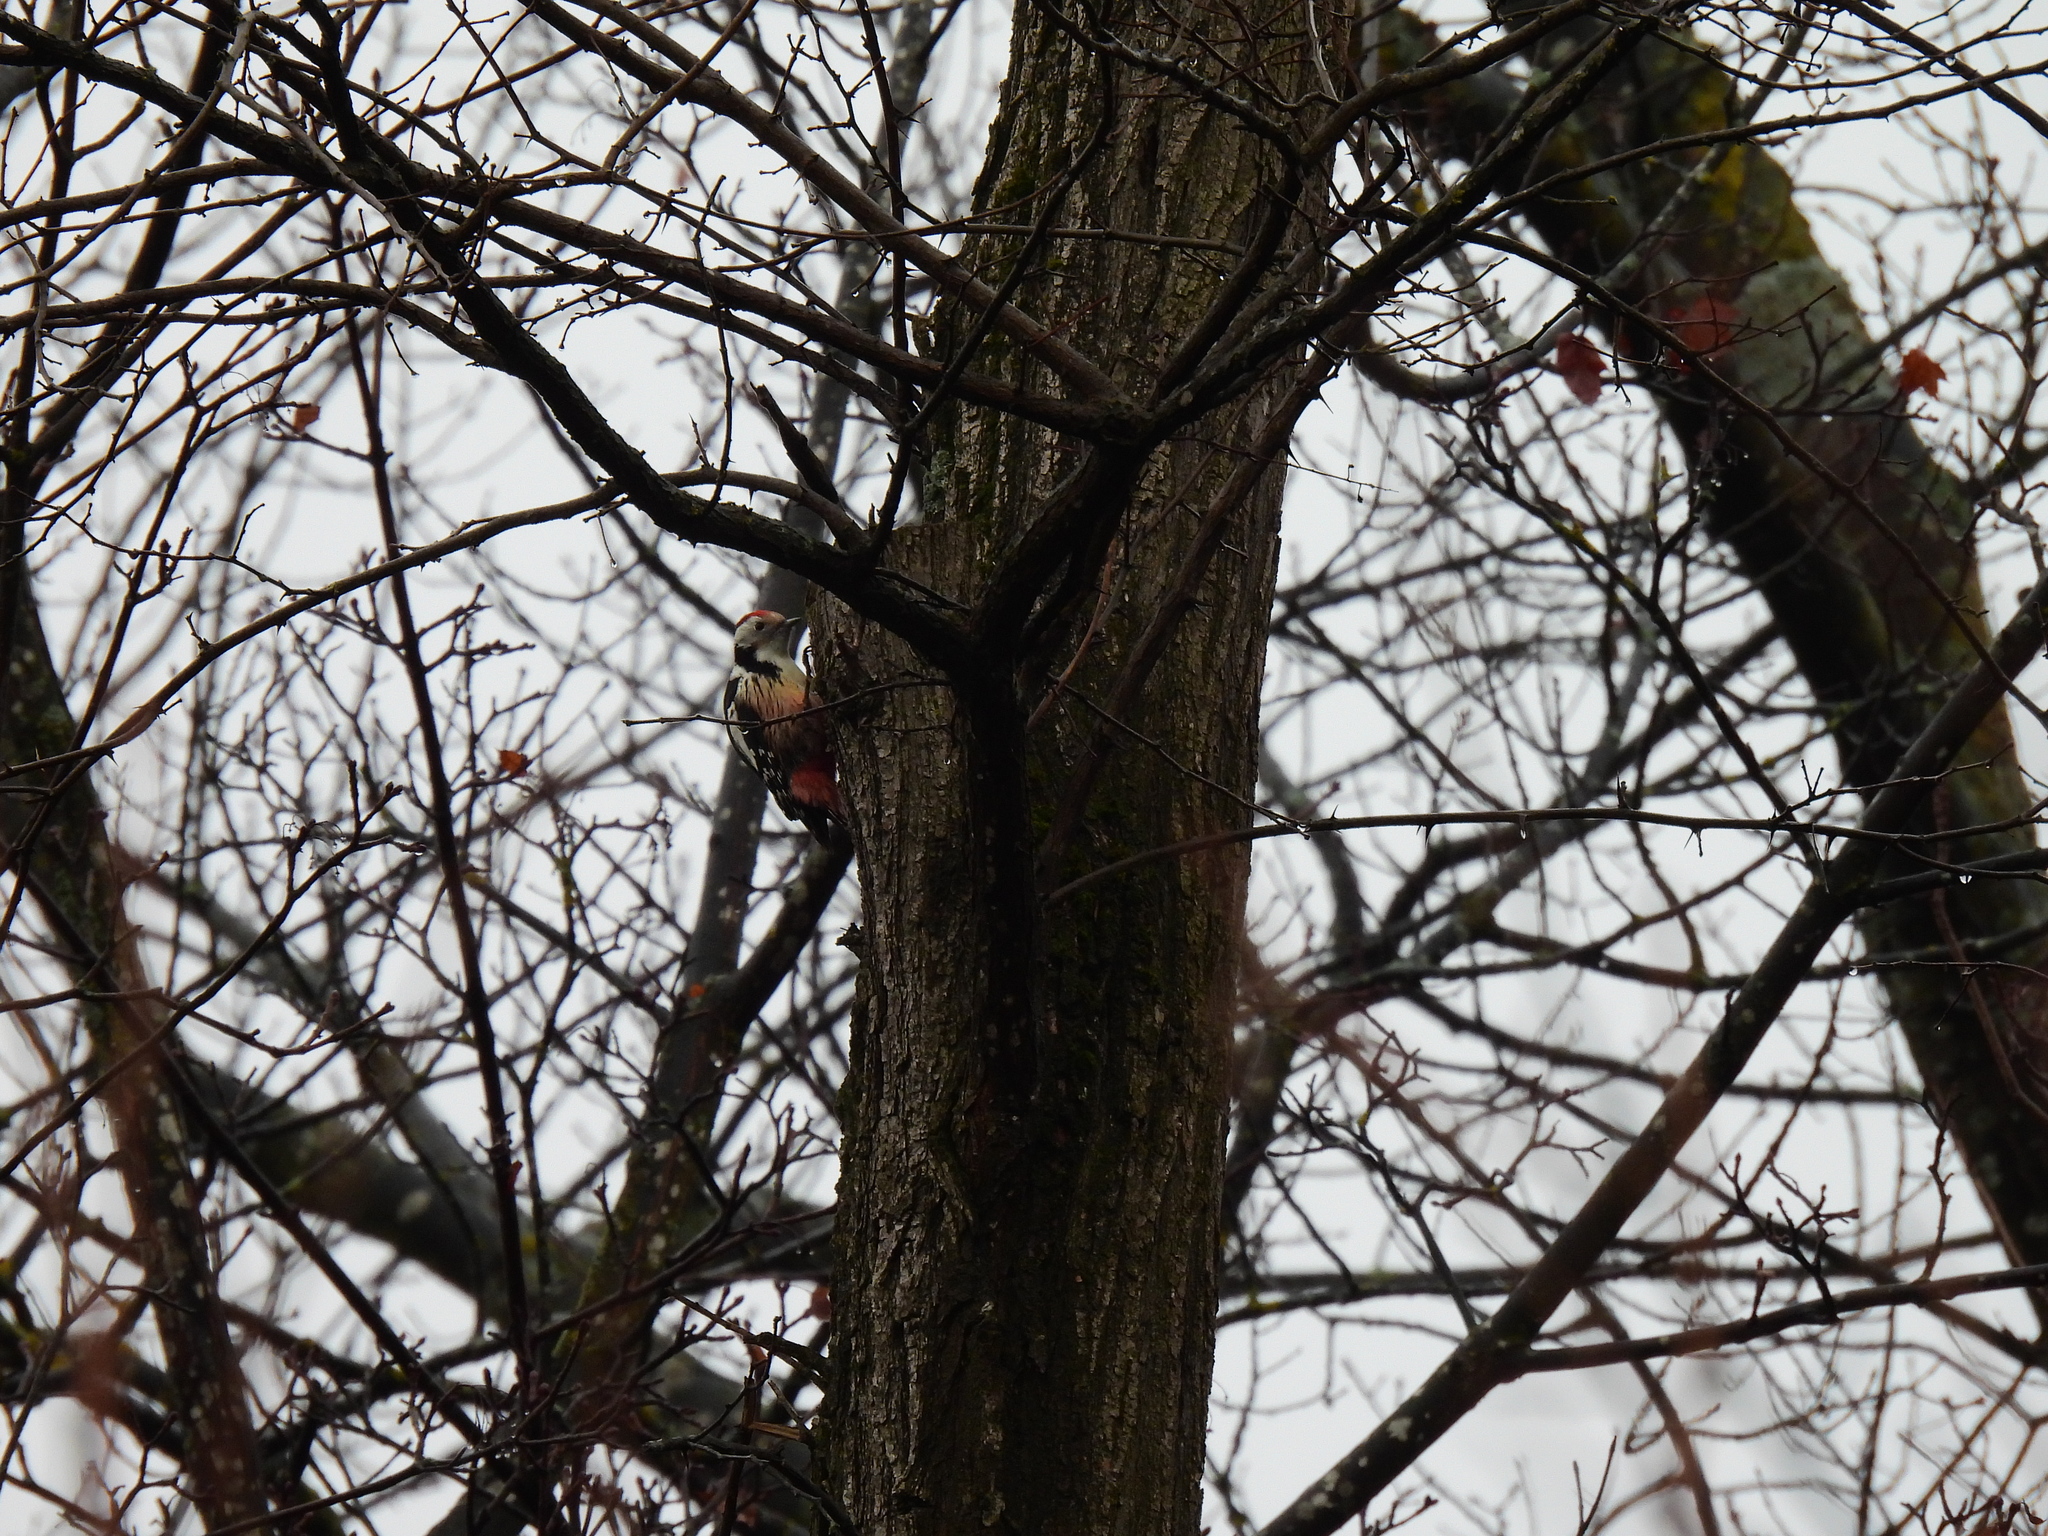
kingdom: Animalia
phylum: Chordata
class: Aves
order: Piciformes
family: Picidae
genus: Dendrocoptes
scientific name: Dendrocoptes medius
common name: Middle spotted woodpecker
